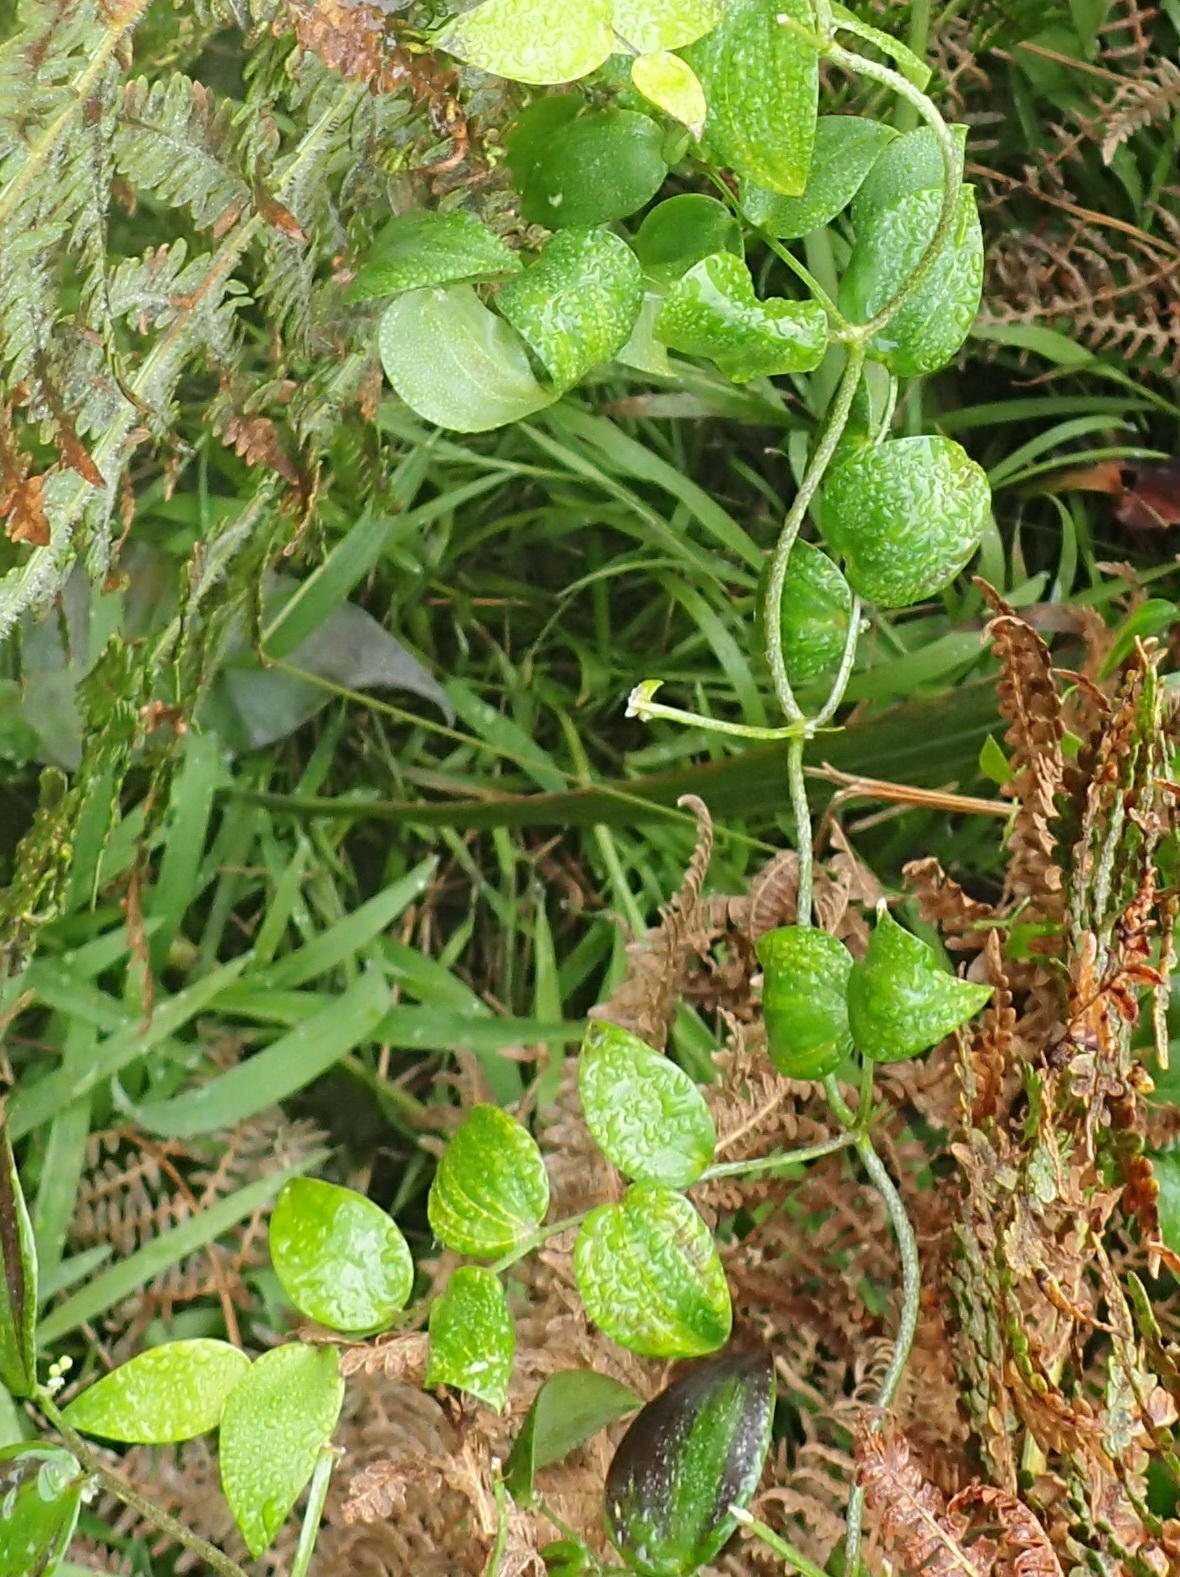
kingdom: Plantae
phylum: Tracheophyta
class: Liliopsida
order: Asparagales
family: Asparagaceae
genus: Asparagus
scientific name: Asparagus asparagoides
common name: African asparagus fern
